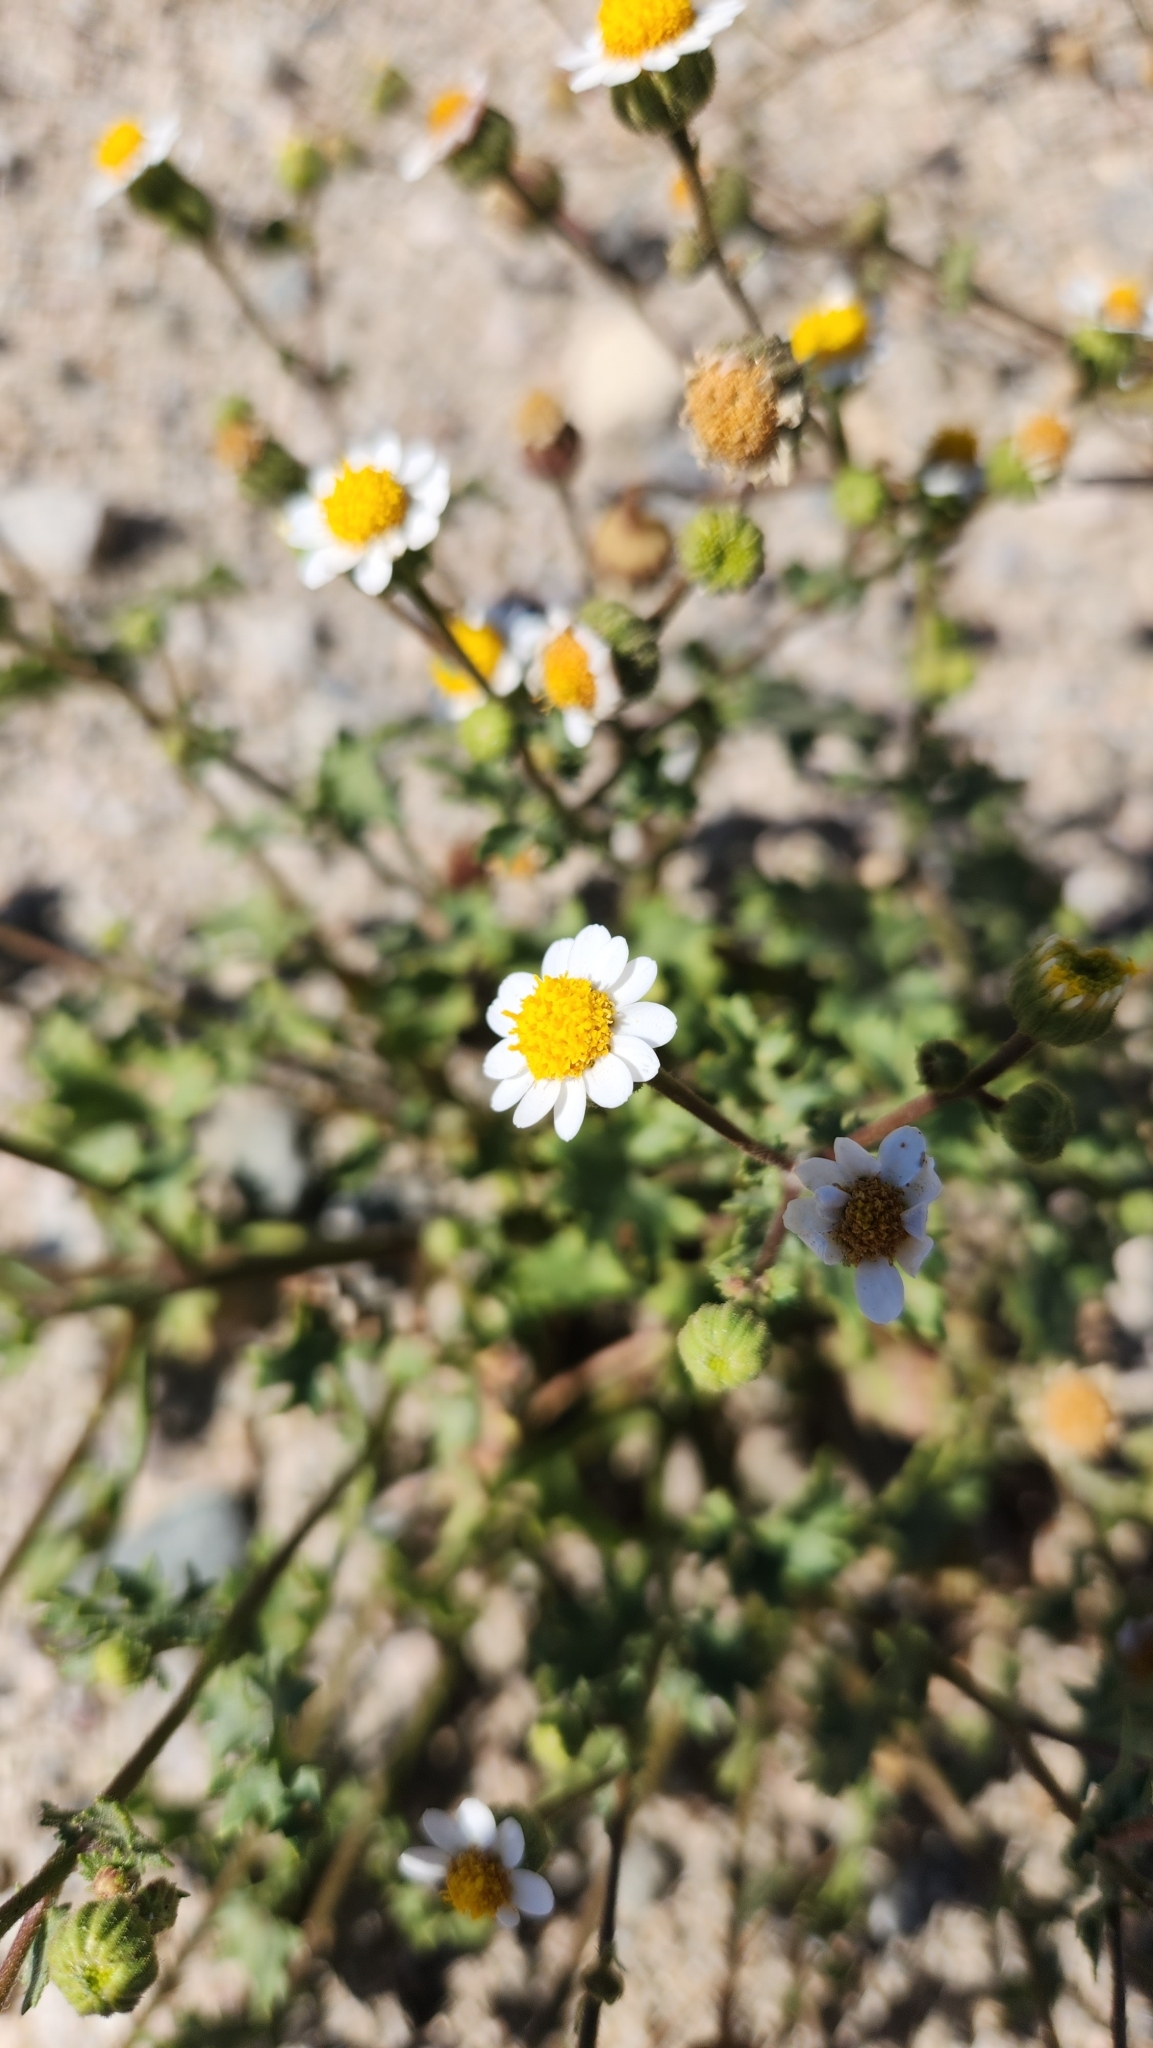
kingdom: Plantae
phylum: Tracheophyta
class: Magnoliopsida
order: Asterales
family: Asteraceae
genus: Laphamia
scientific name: Laphamia emoryi
